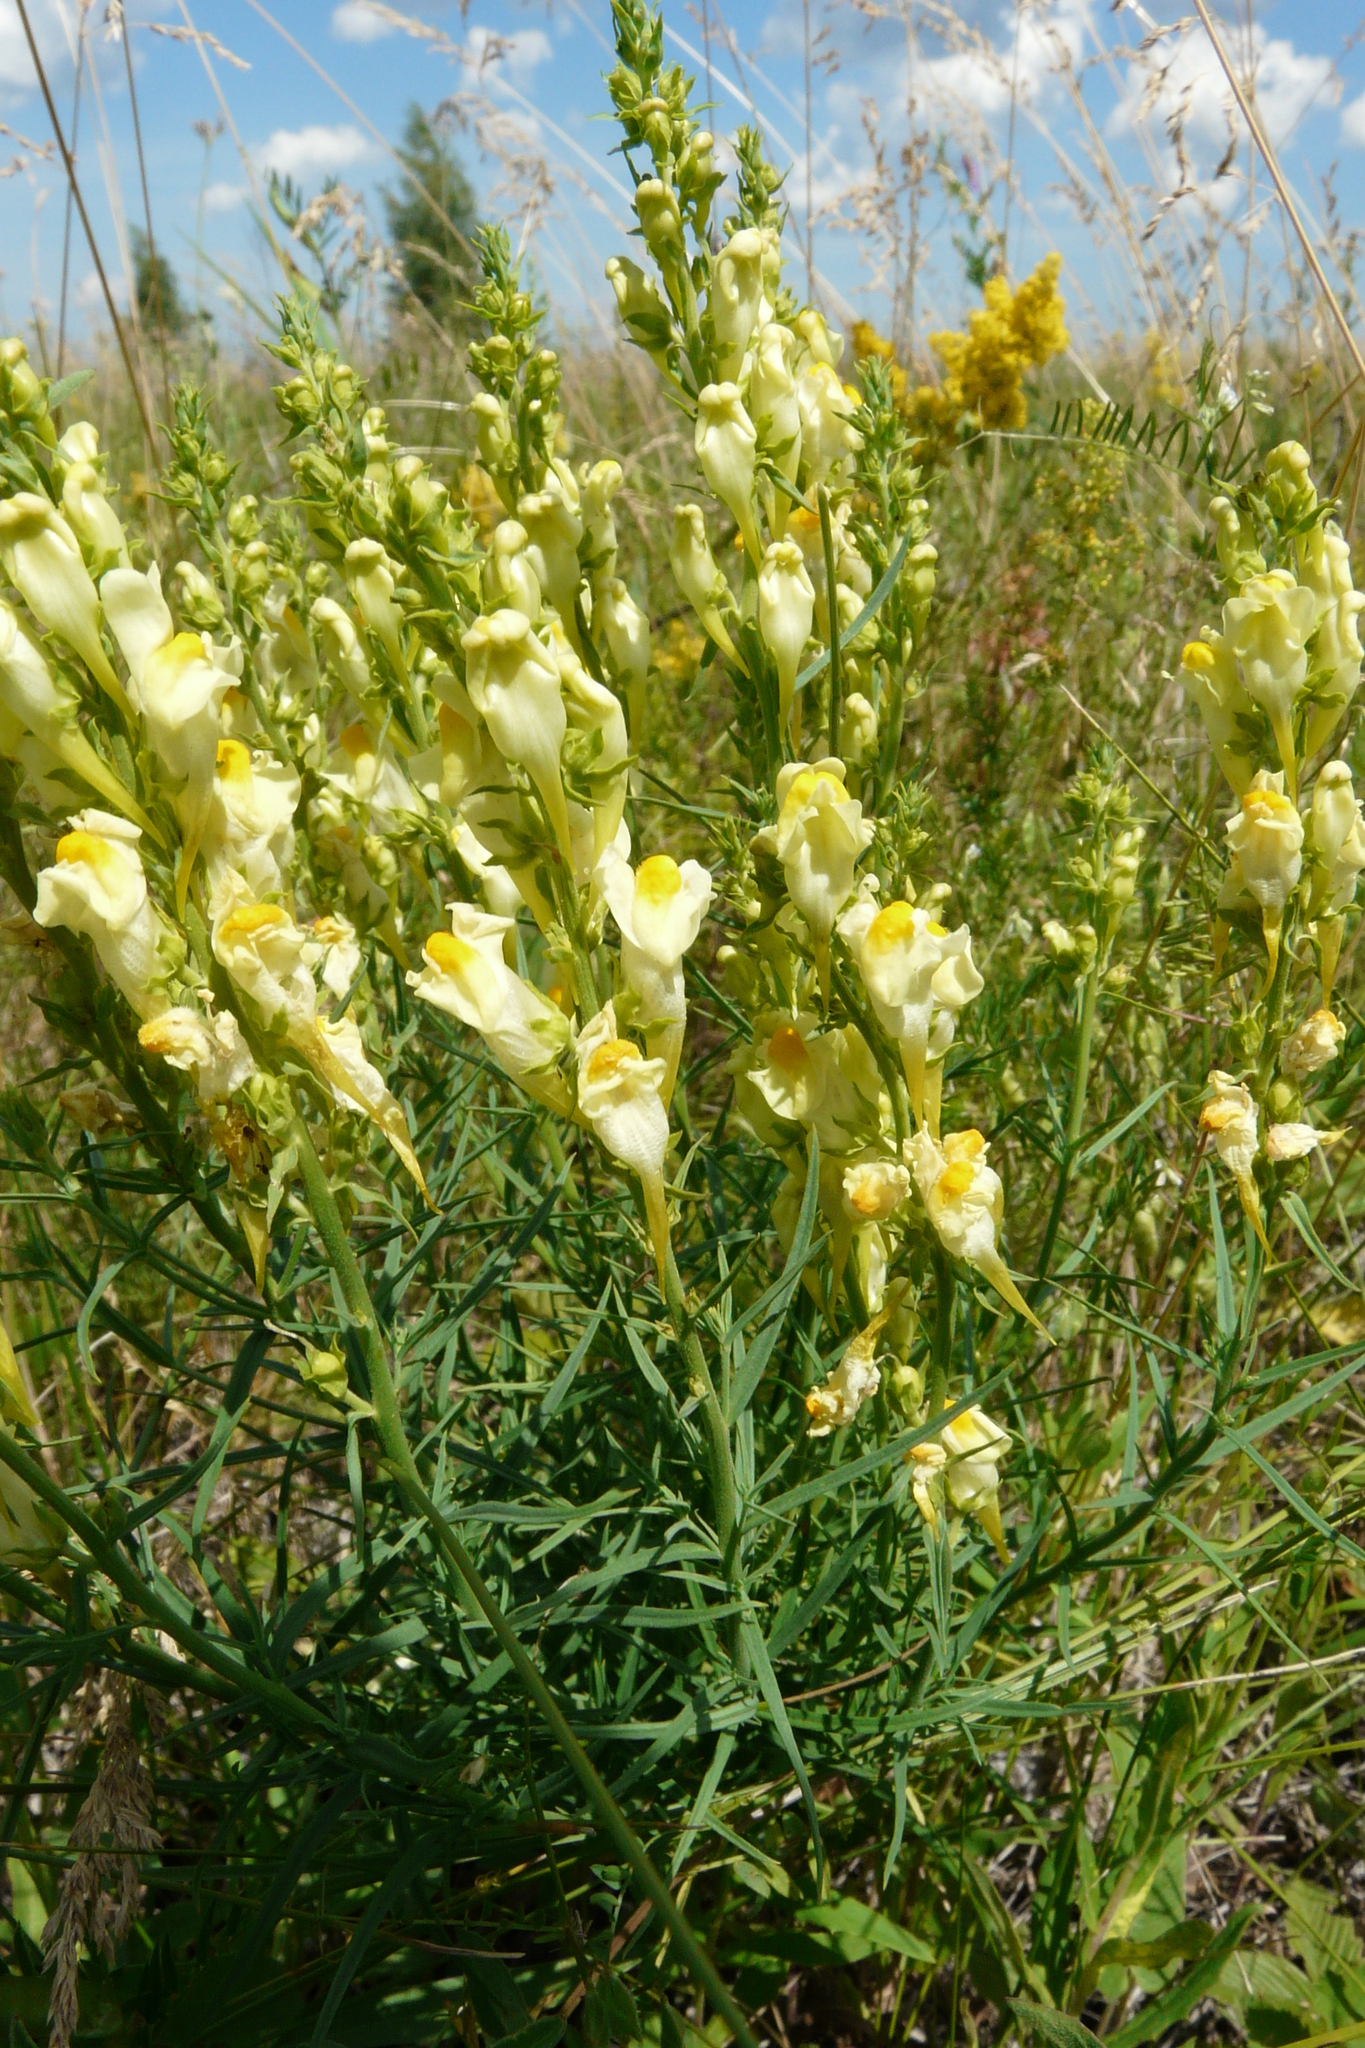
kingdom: Plantae
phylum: Tracheophyta
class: Magnoliopsida
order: Lamiales
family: Plantaginaceae
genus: Linaria
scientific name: Linaria vulgaris
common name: Butter and eggs
